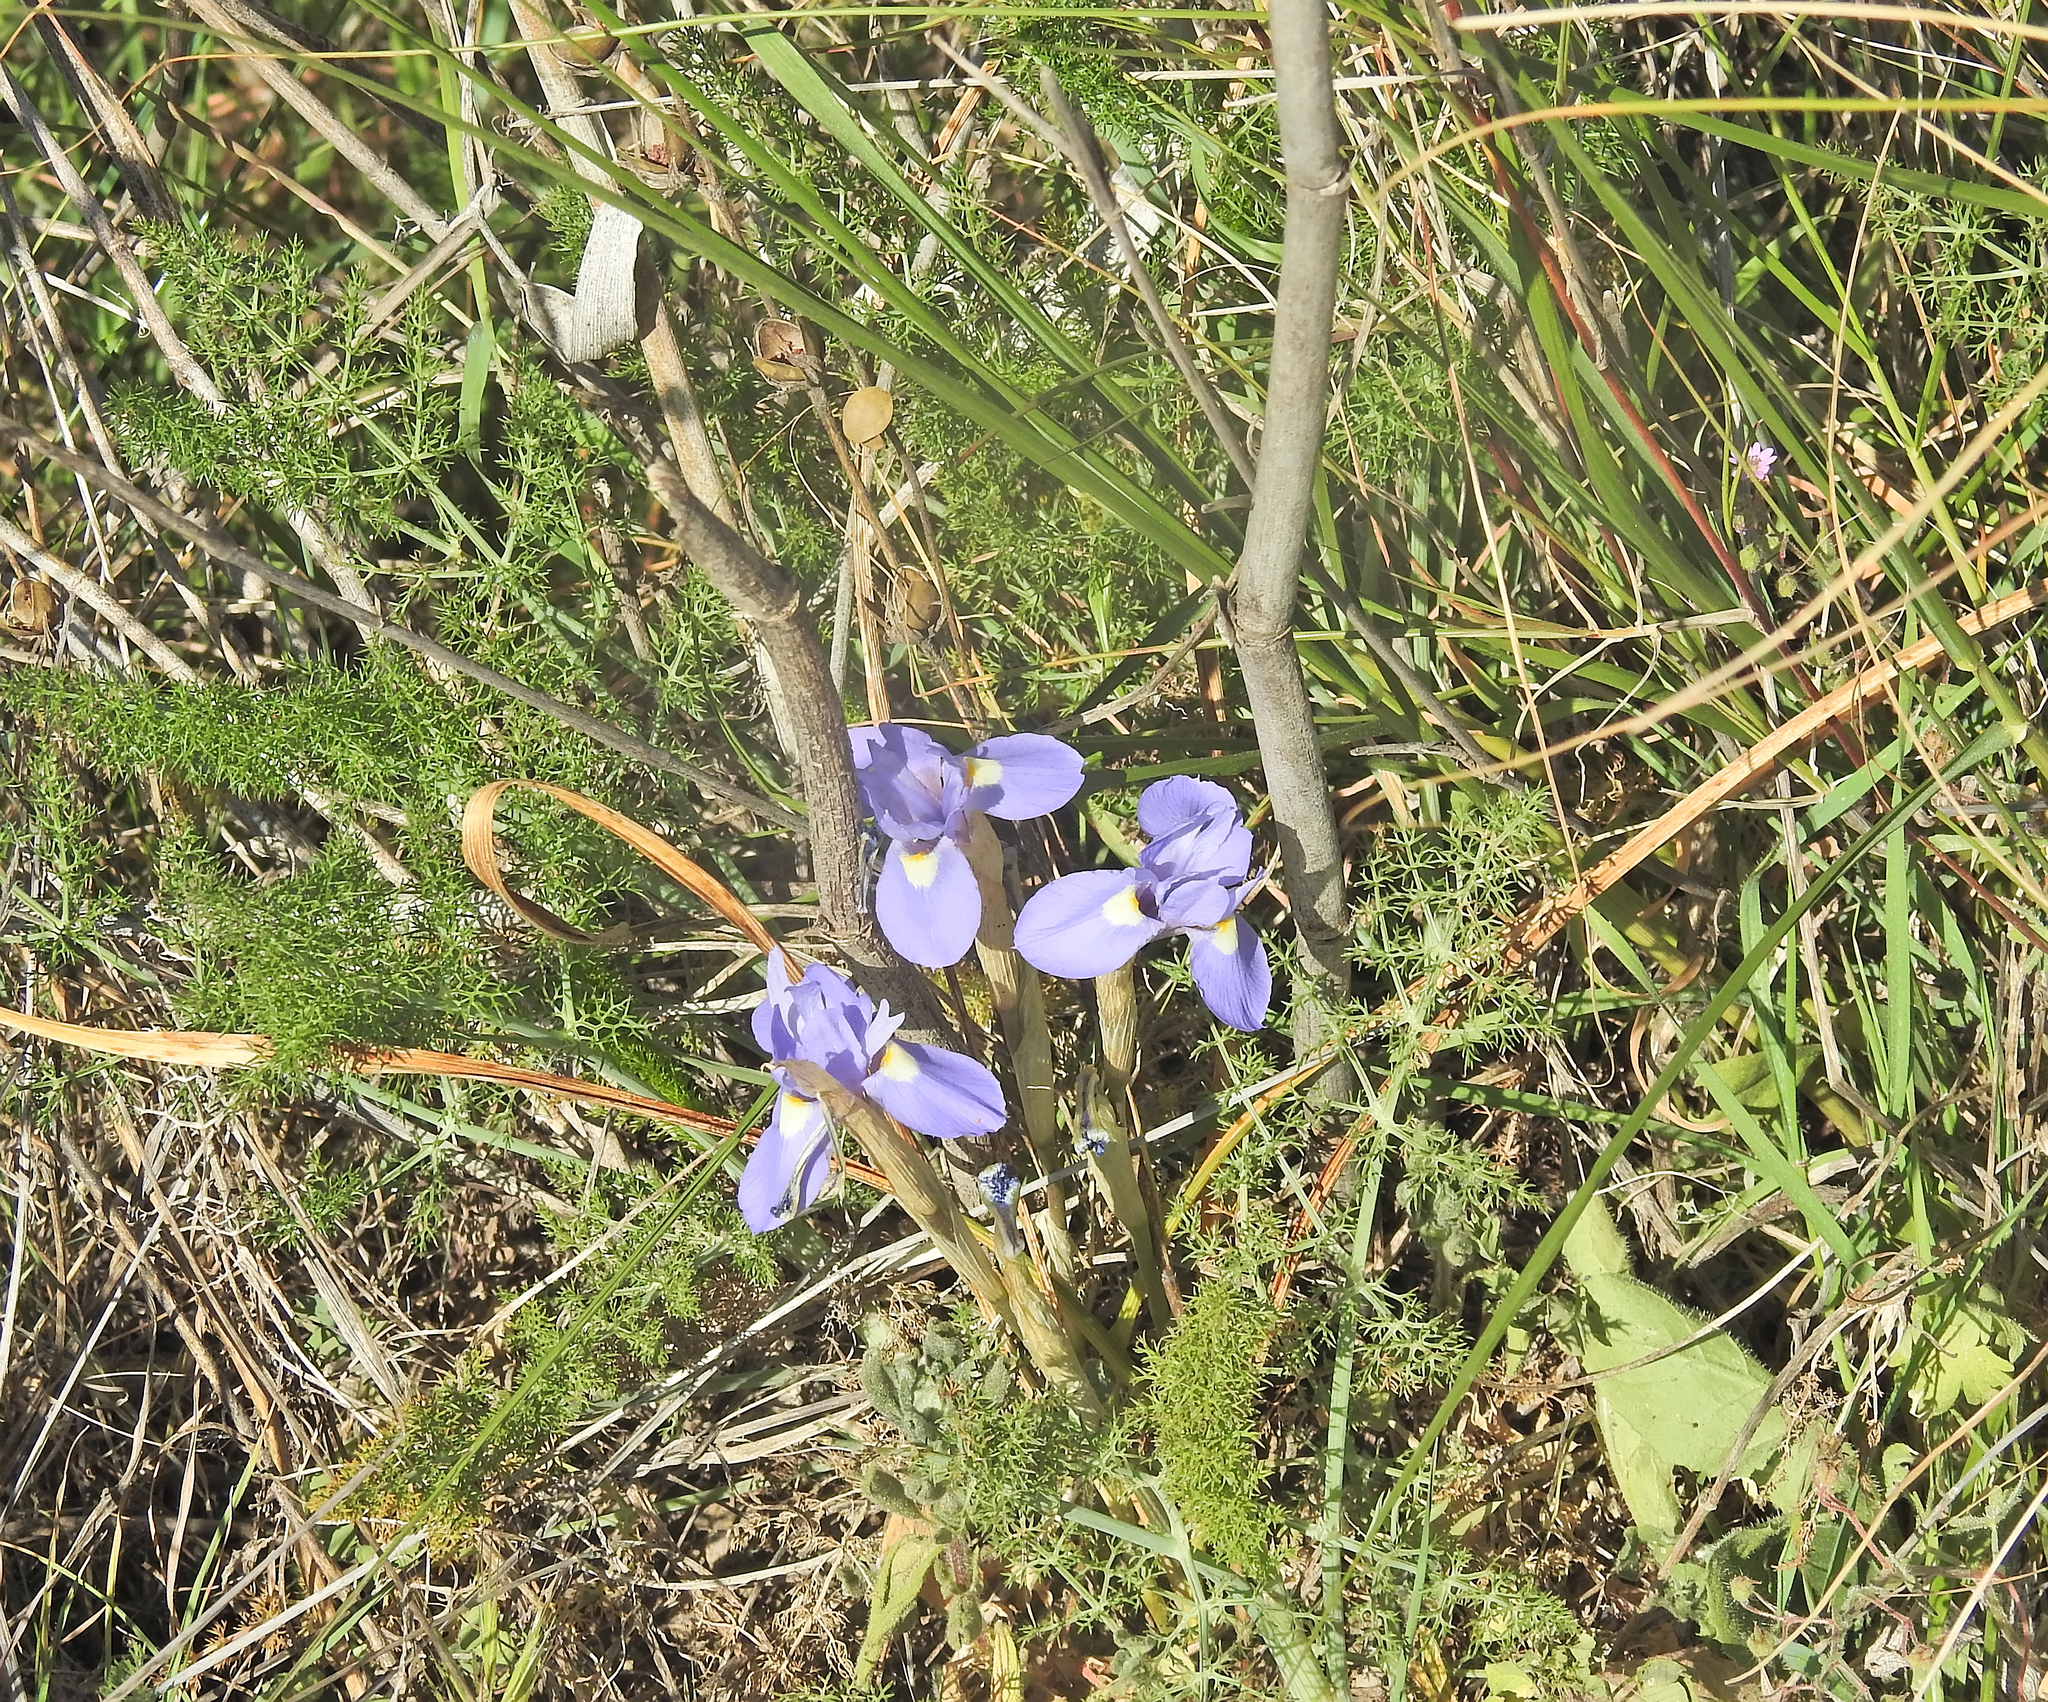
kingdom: Plantae
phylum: Tracheophyta
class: Liliopsida
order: Asparagales
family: Iridaceae
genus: Moraea
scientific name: Moraea sisyrinchium
